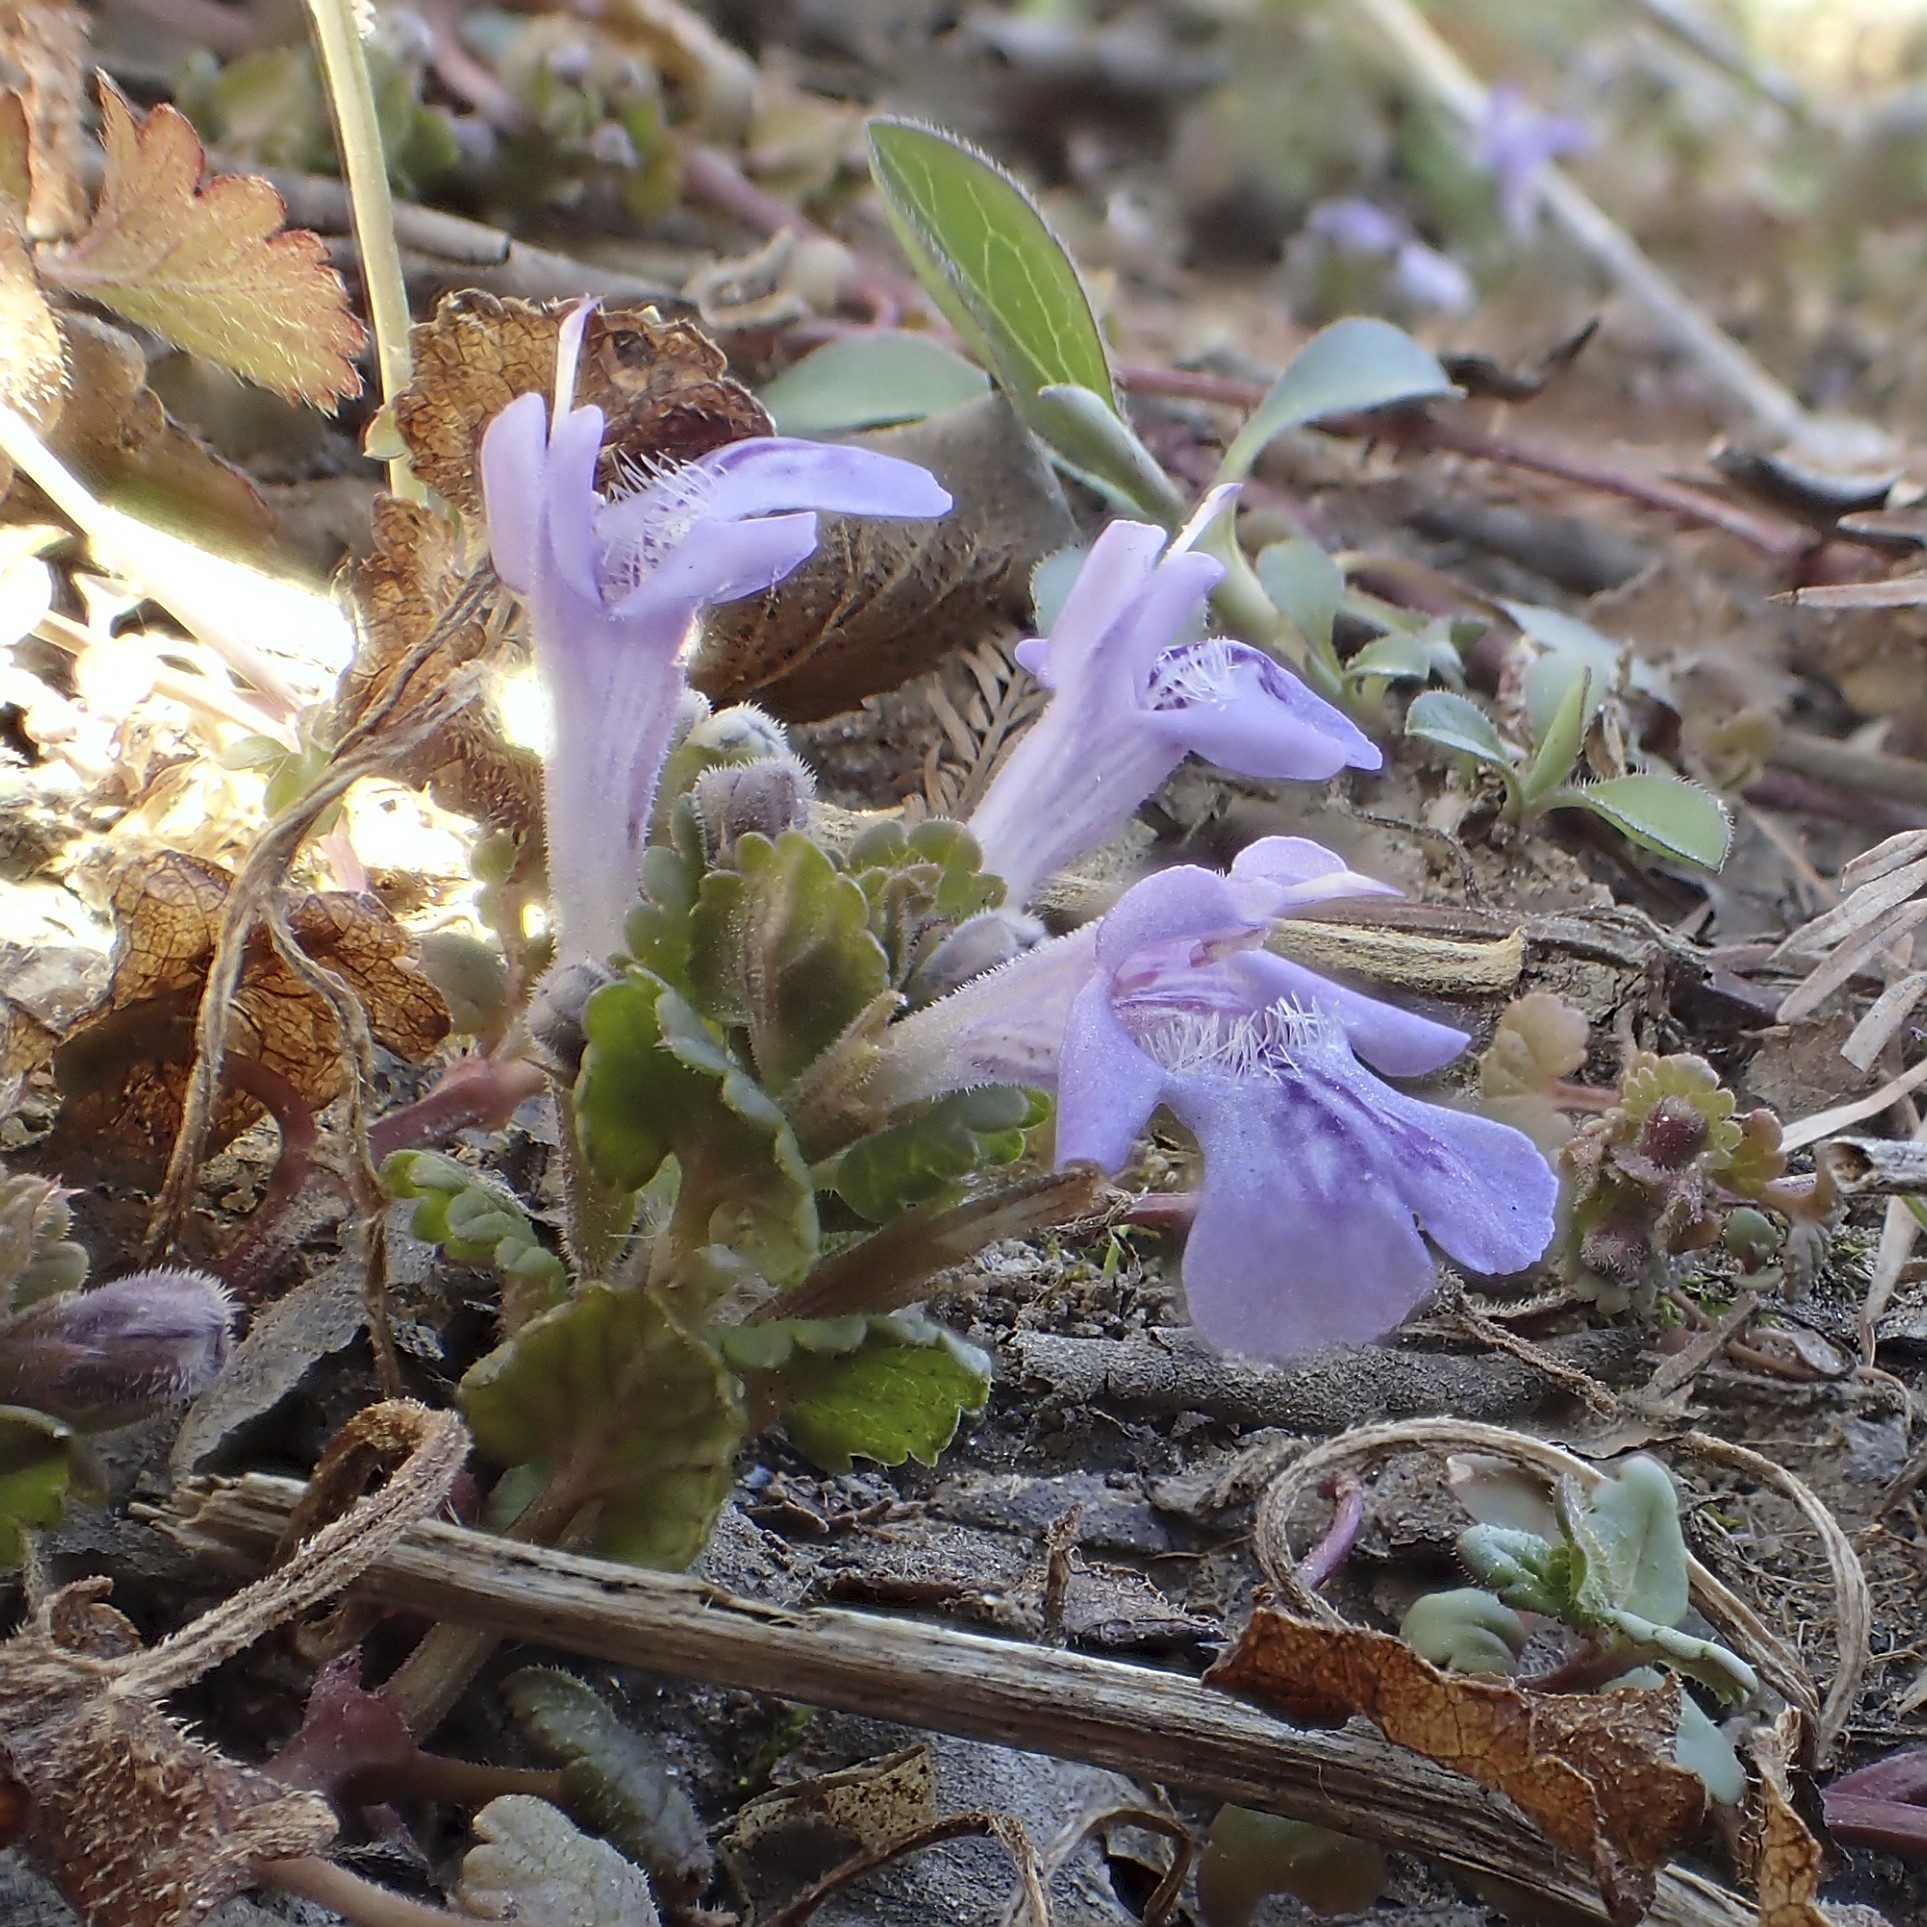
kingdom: Plantae
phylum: Tracheophyta
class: Magnoliopsida
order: Lamiales
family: Lamiaceae
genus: Glechoma
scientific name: Glechoma hederacea
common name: Ground ivy
